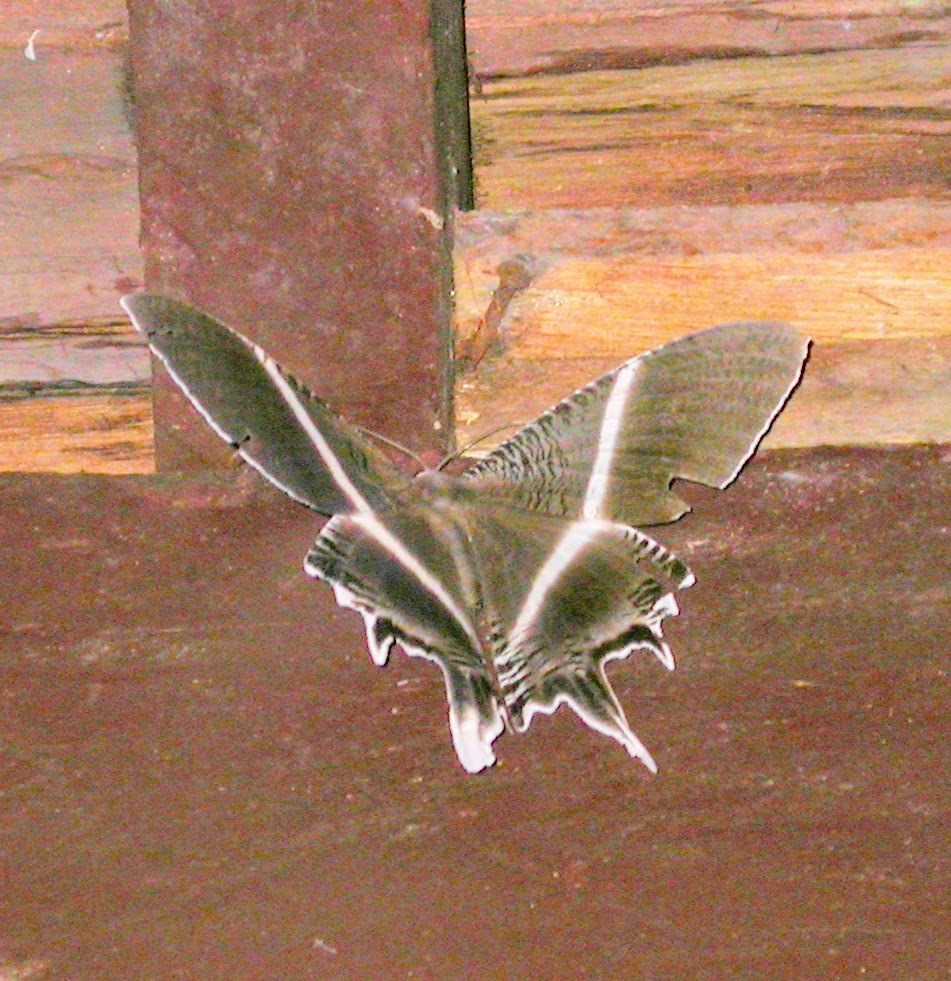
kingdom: Animalia
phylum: Arthropoda
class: Insecta
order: Lepidoptera
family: Uraniidae
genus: Lyssa
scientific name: Lyssa menoetius
